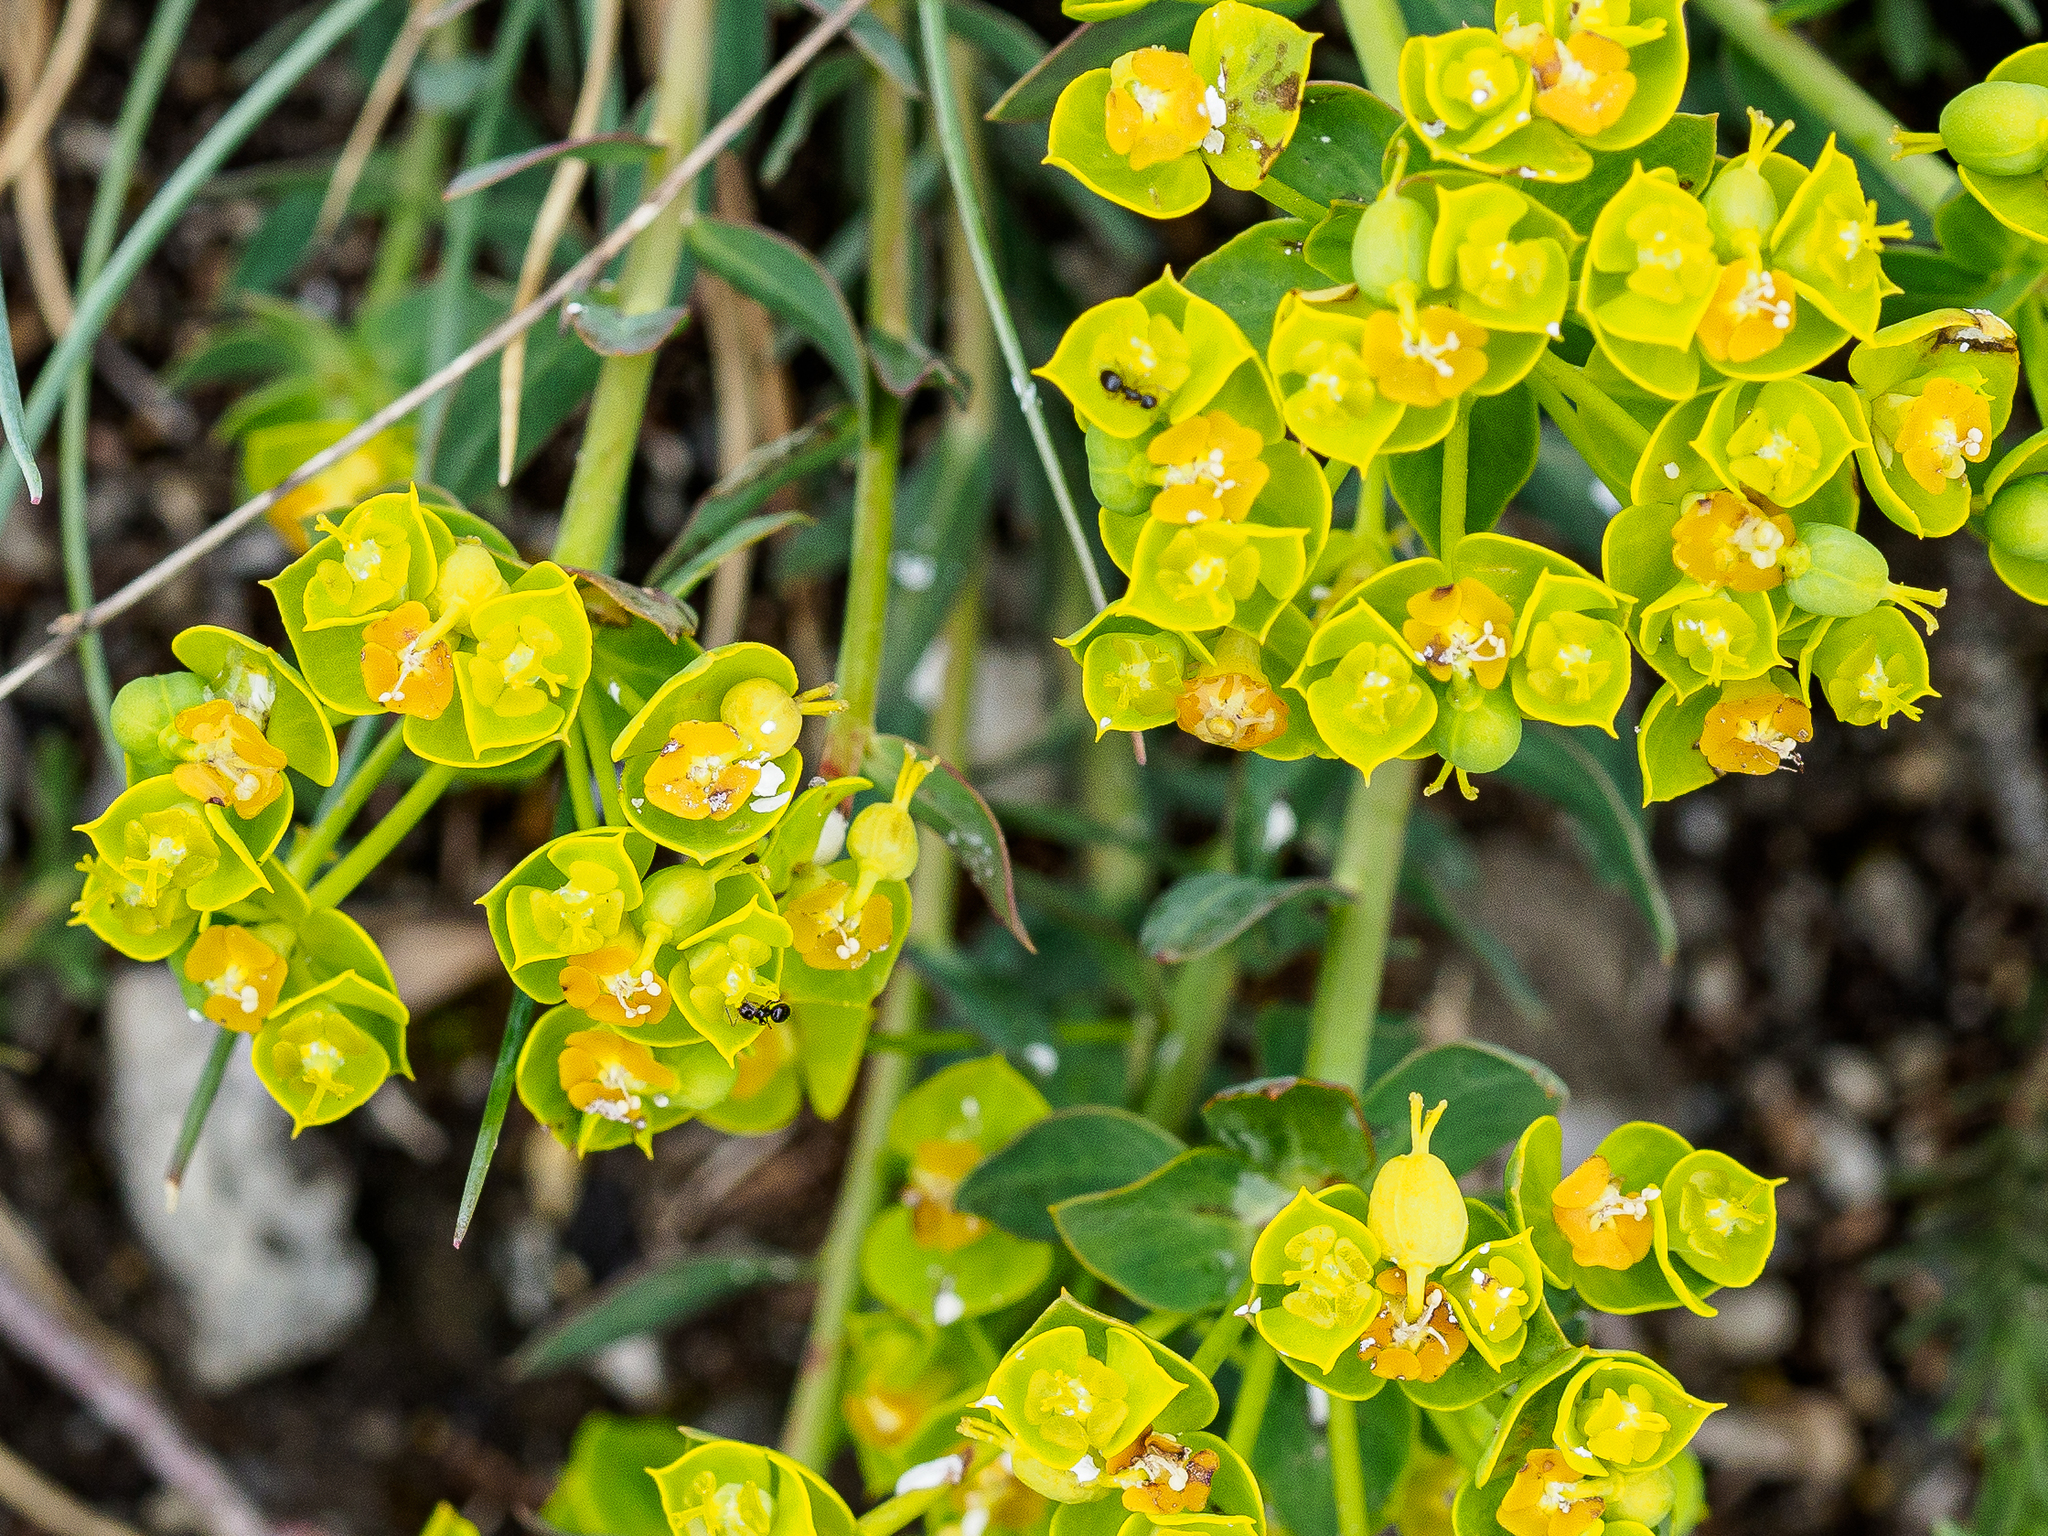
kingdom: Plantae
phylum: Tracheophyta
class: Magnoliopsida
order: Malpighiales
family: Euphorbiaceae
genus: Euphorbia
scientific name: Euphorbia seguieriana
